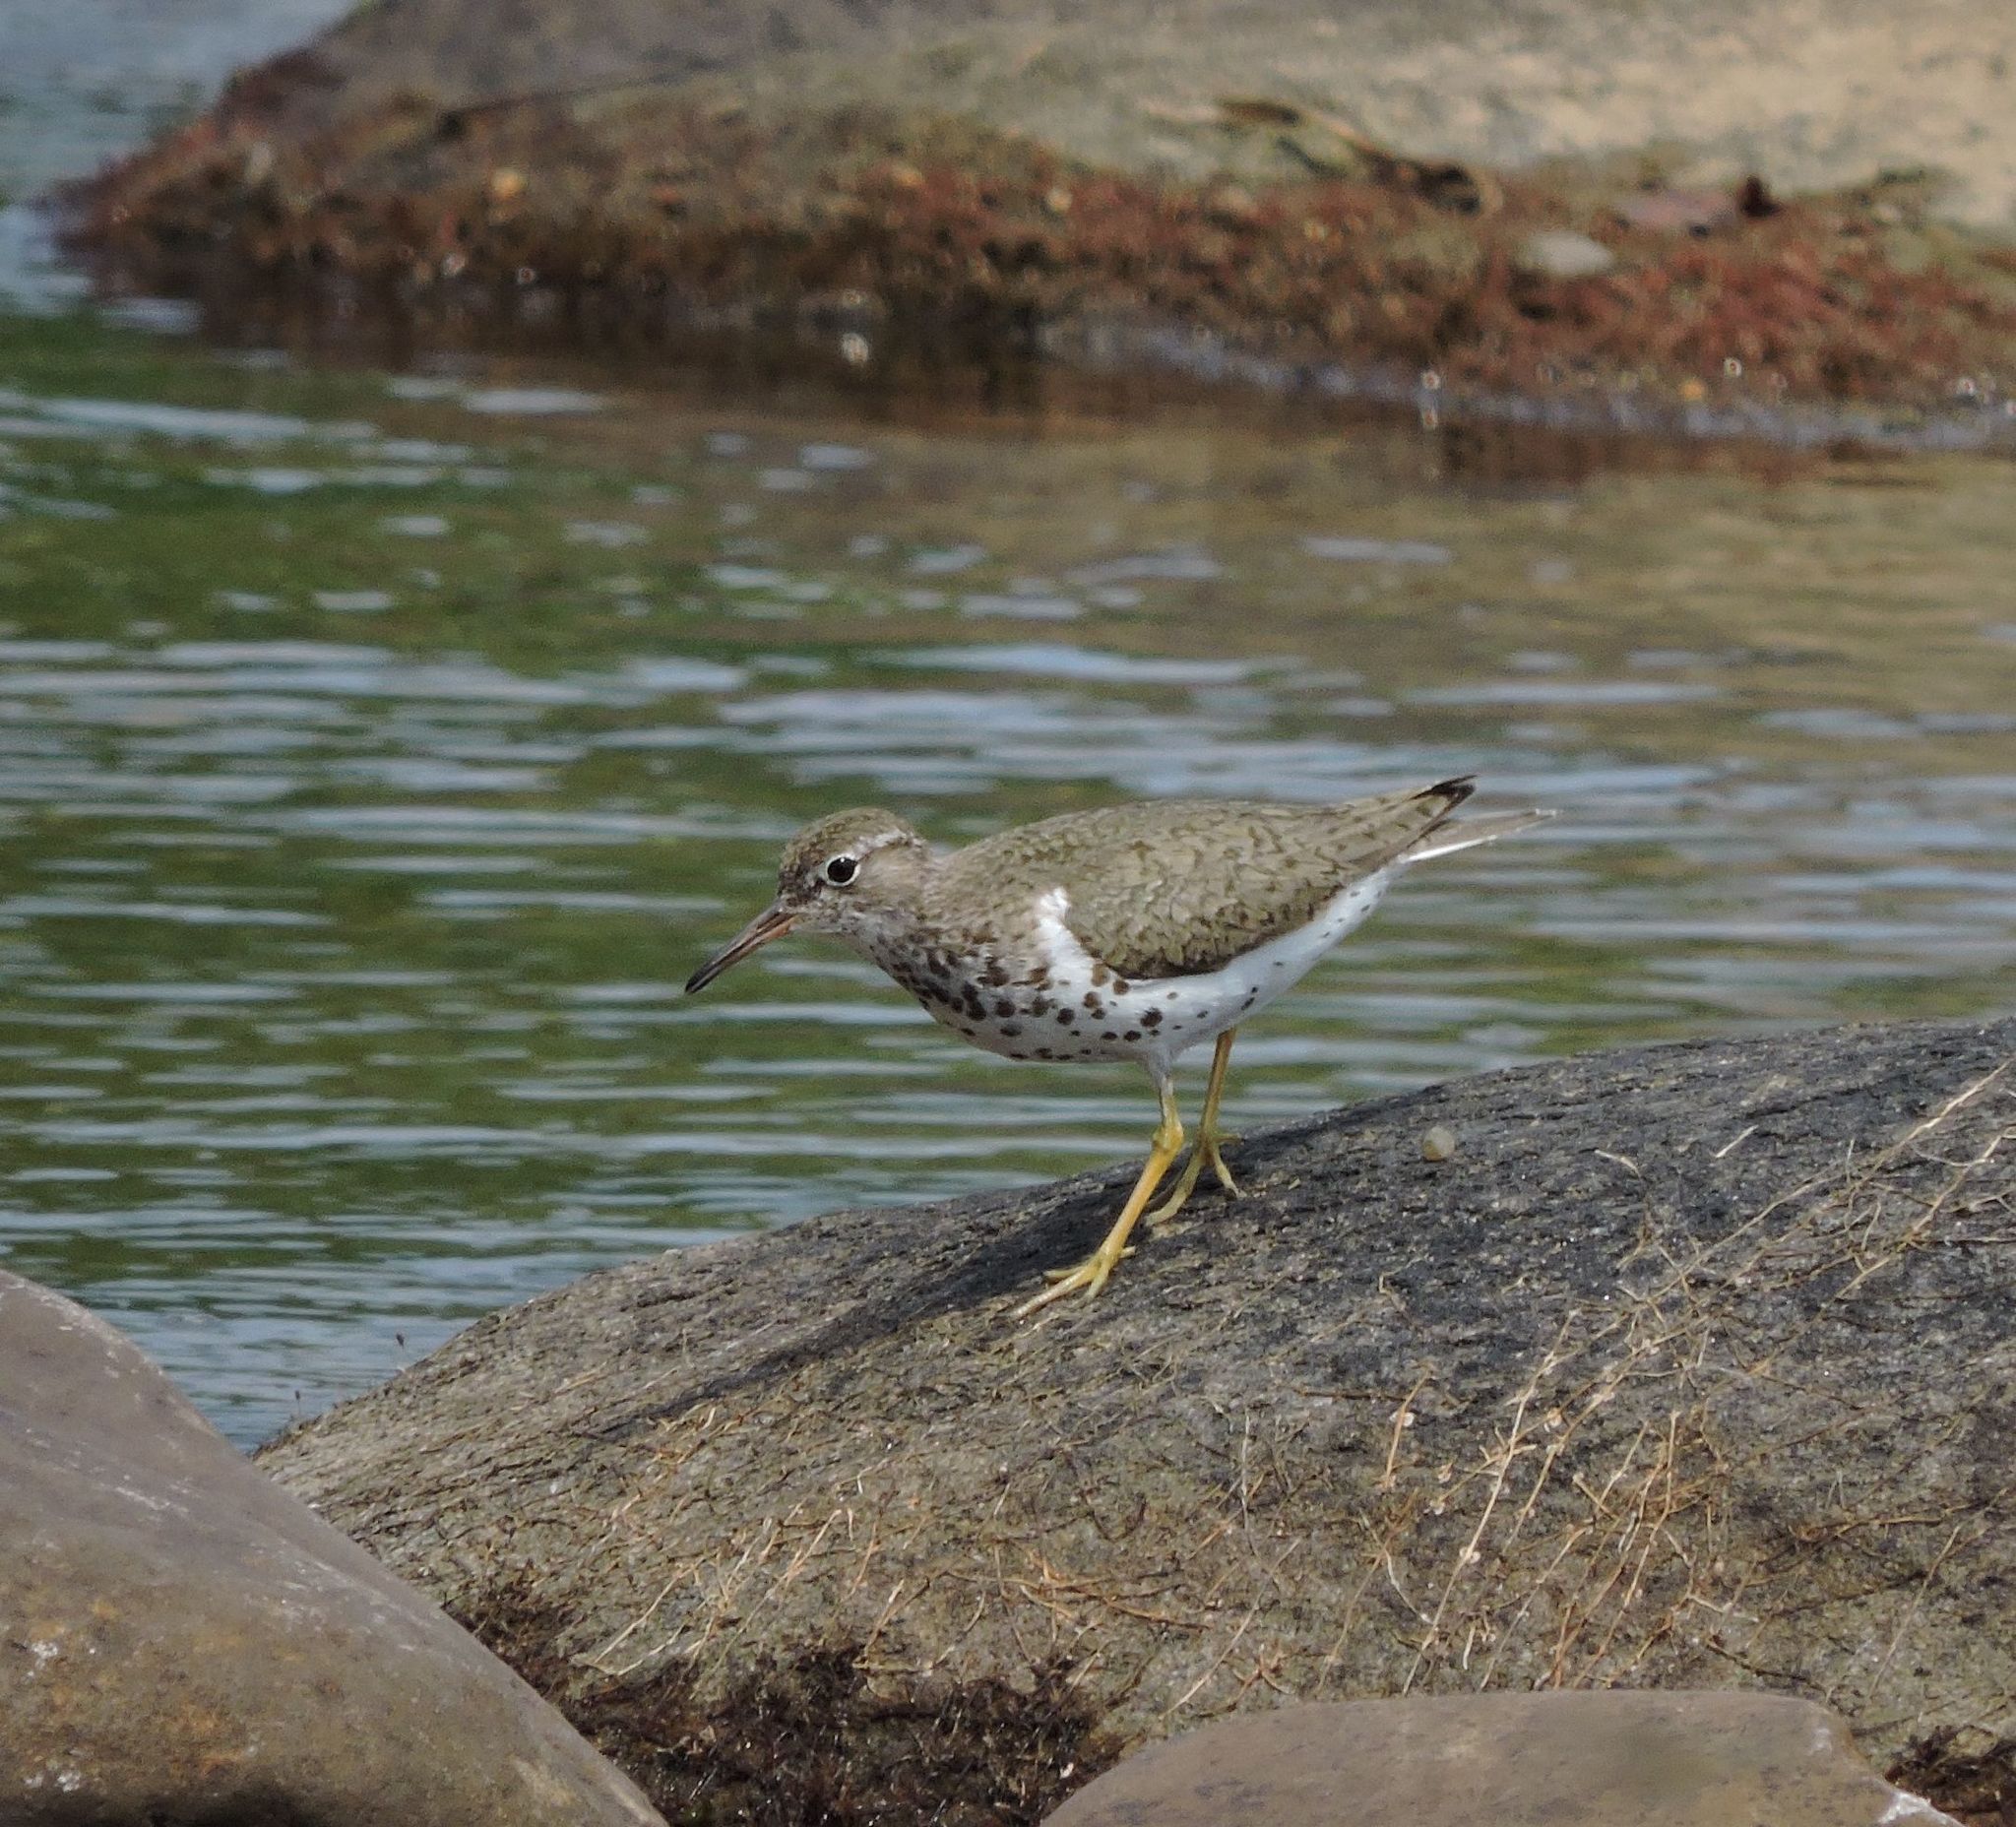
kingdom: Animalia
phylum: Chordata
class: Aves
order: Charadriiformes
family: Scolopacidae
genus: Actitis
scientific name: Actitis macularius
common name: Spotted sandpiper
